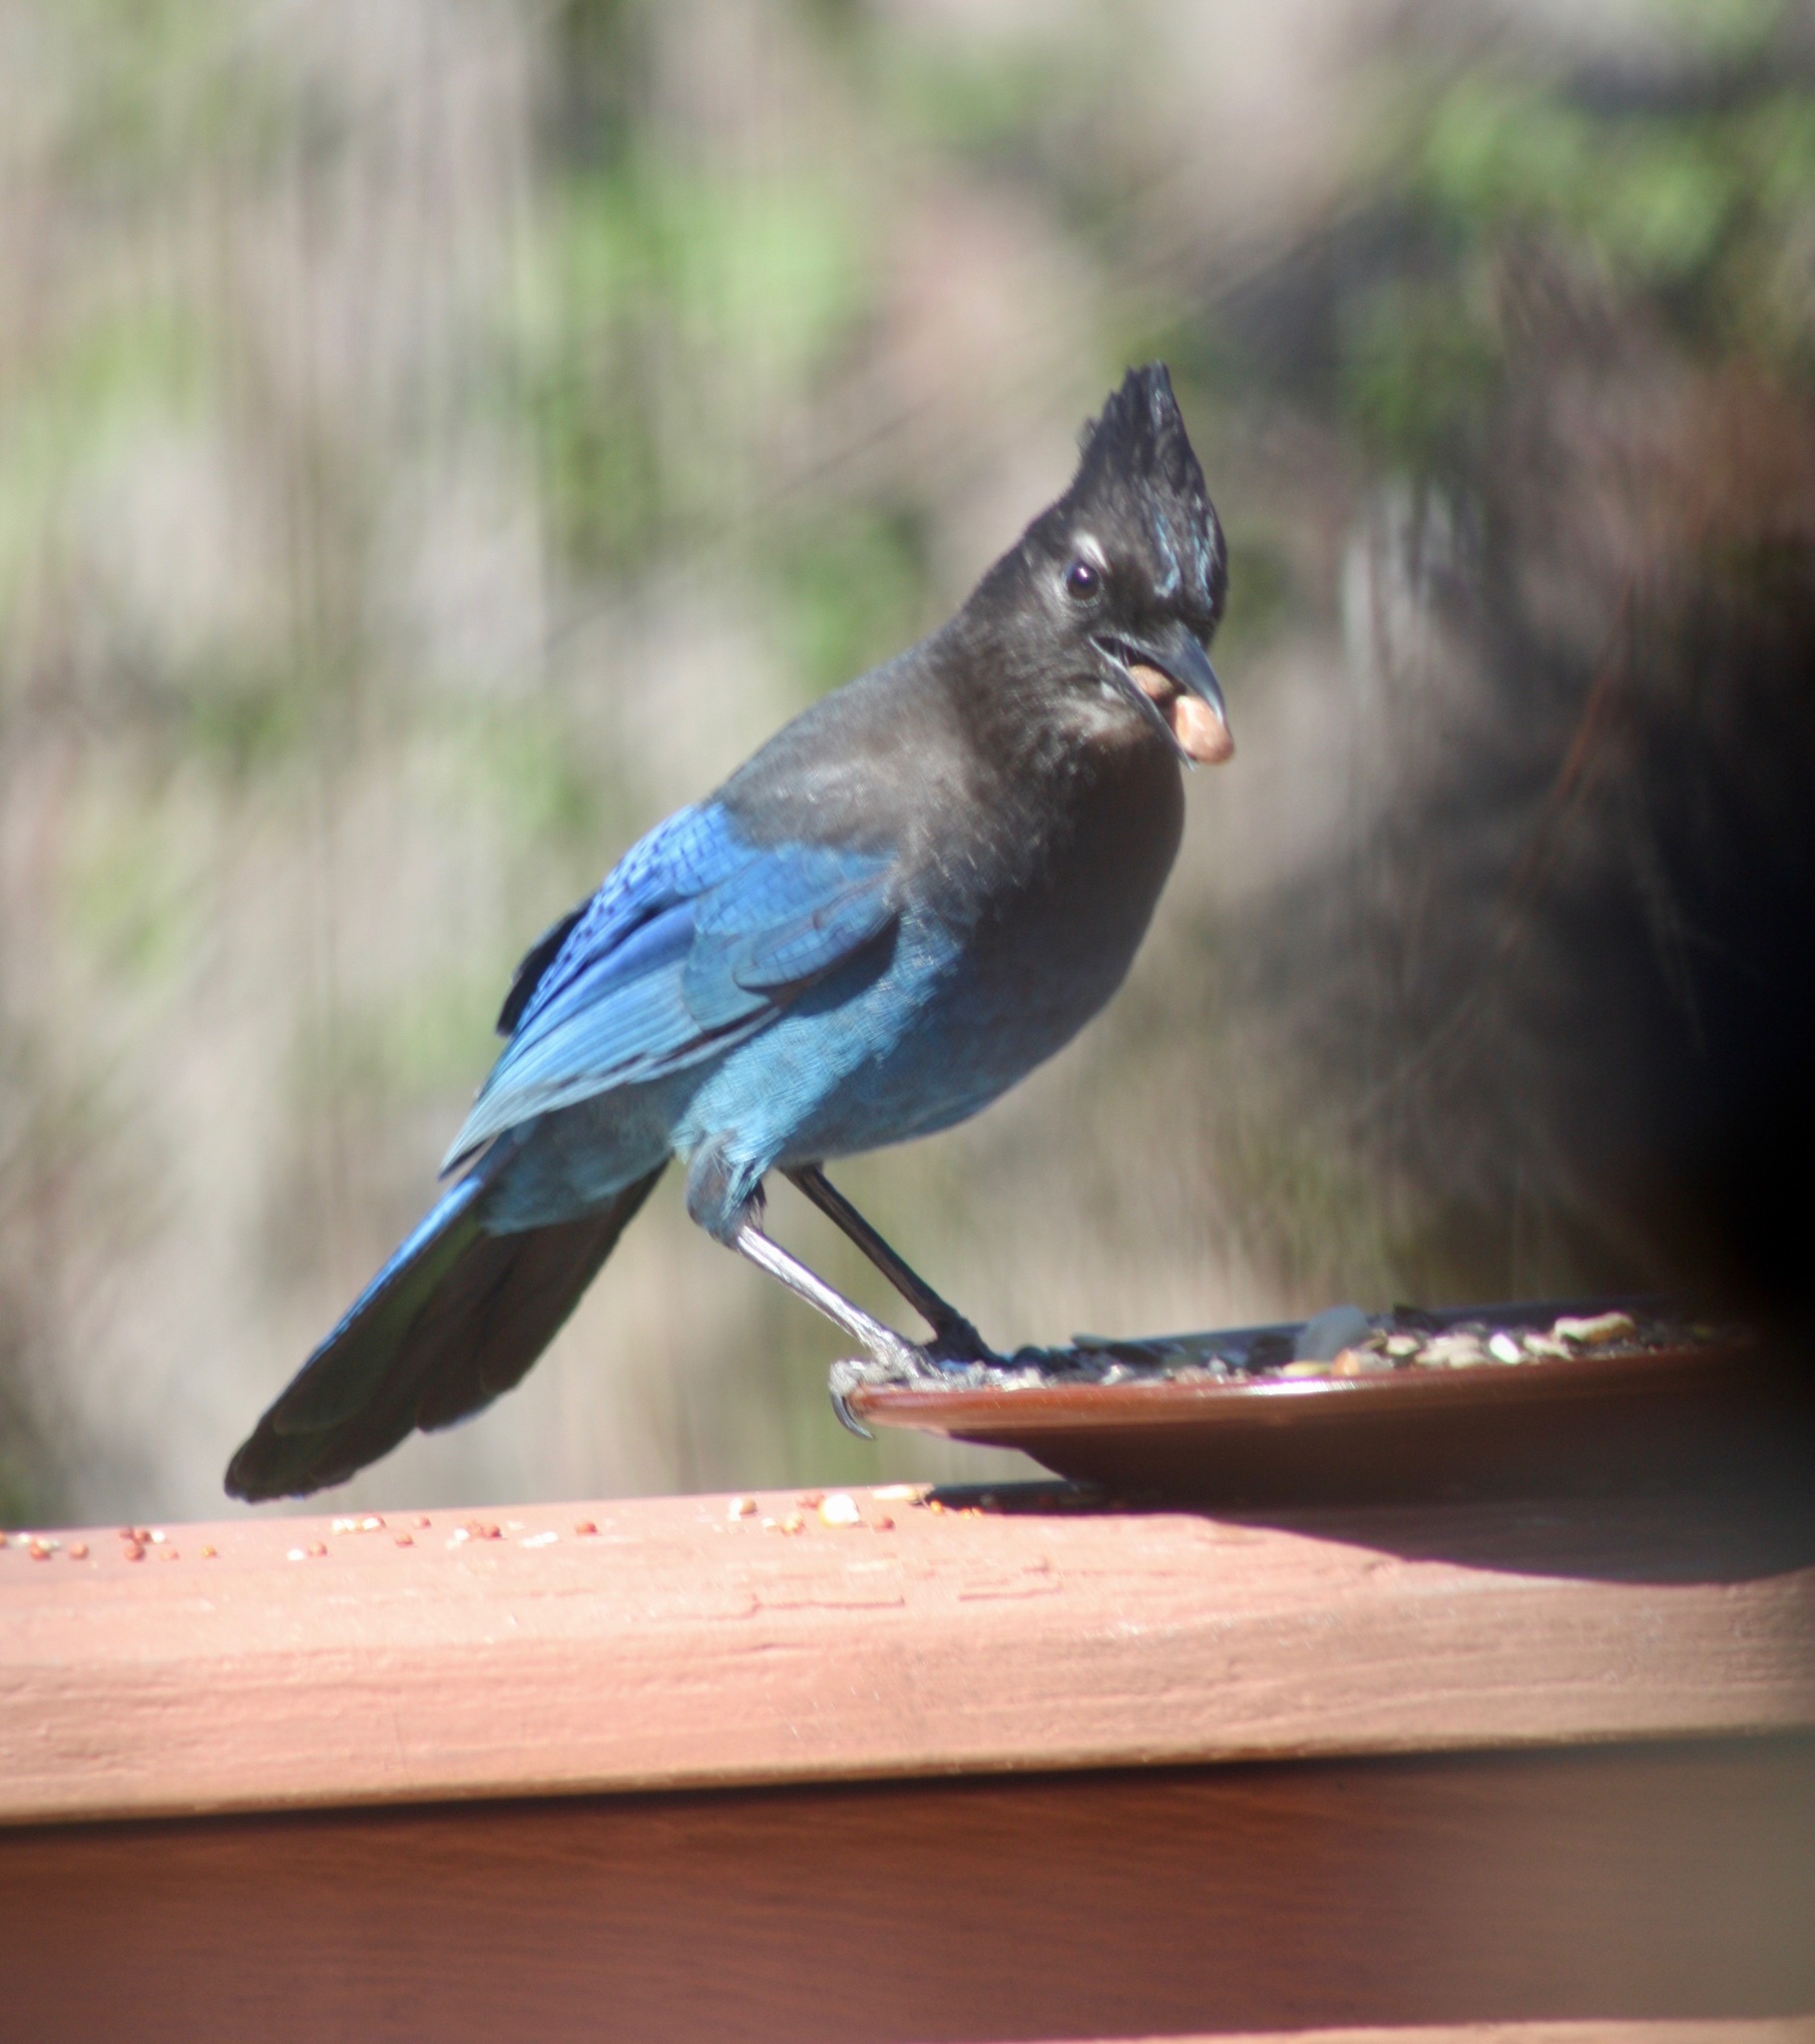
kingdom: Animalia
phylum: Chordata
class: Aves
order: Passeriformes
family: Corvidae
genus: Cyanocitta
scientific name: Cyanocitta stelleri
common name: Steller's jay
